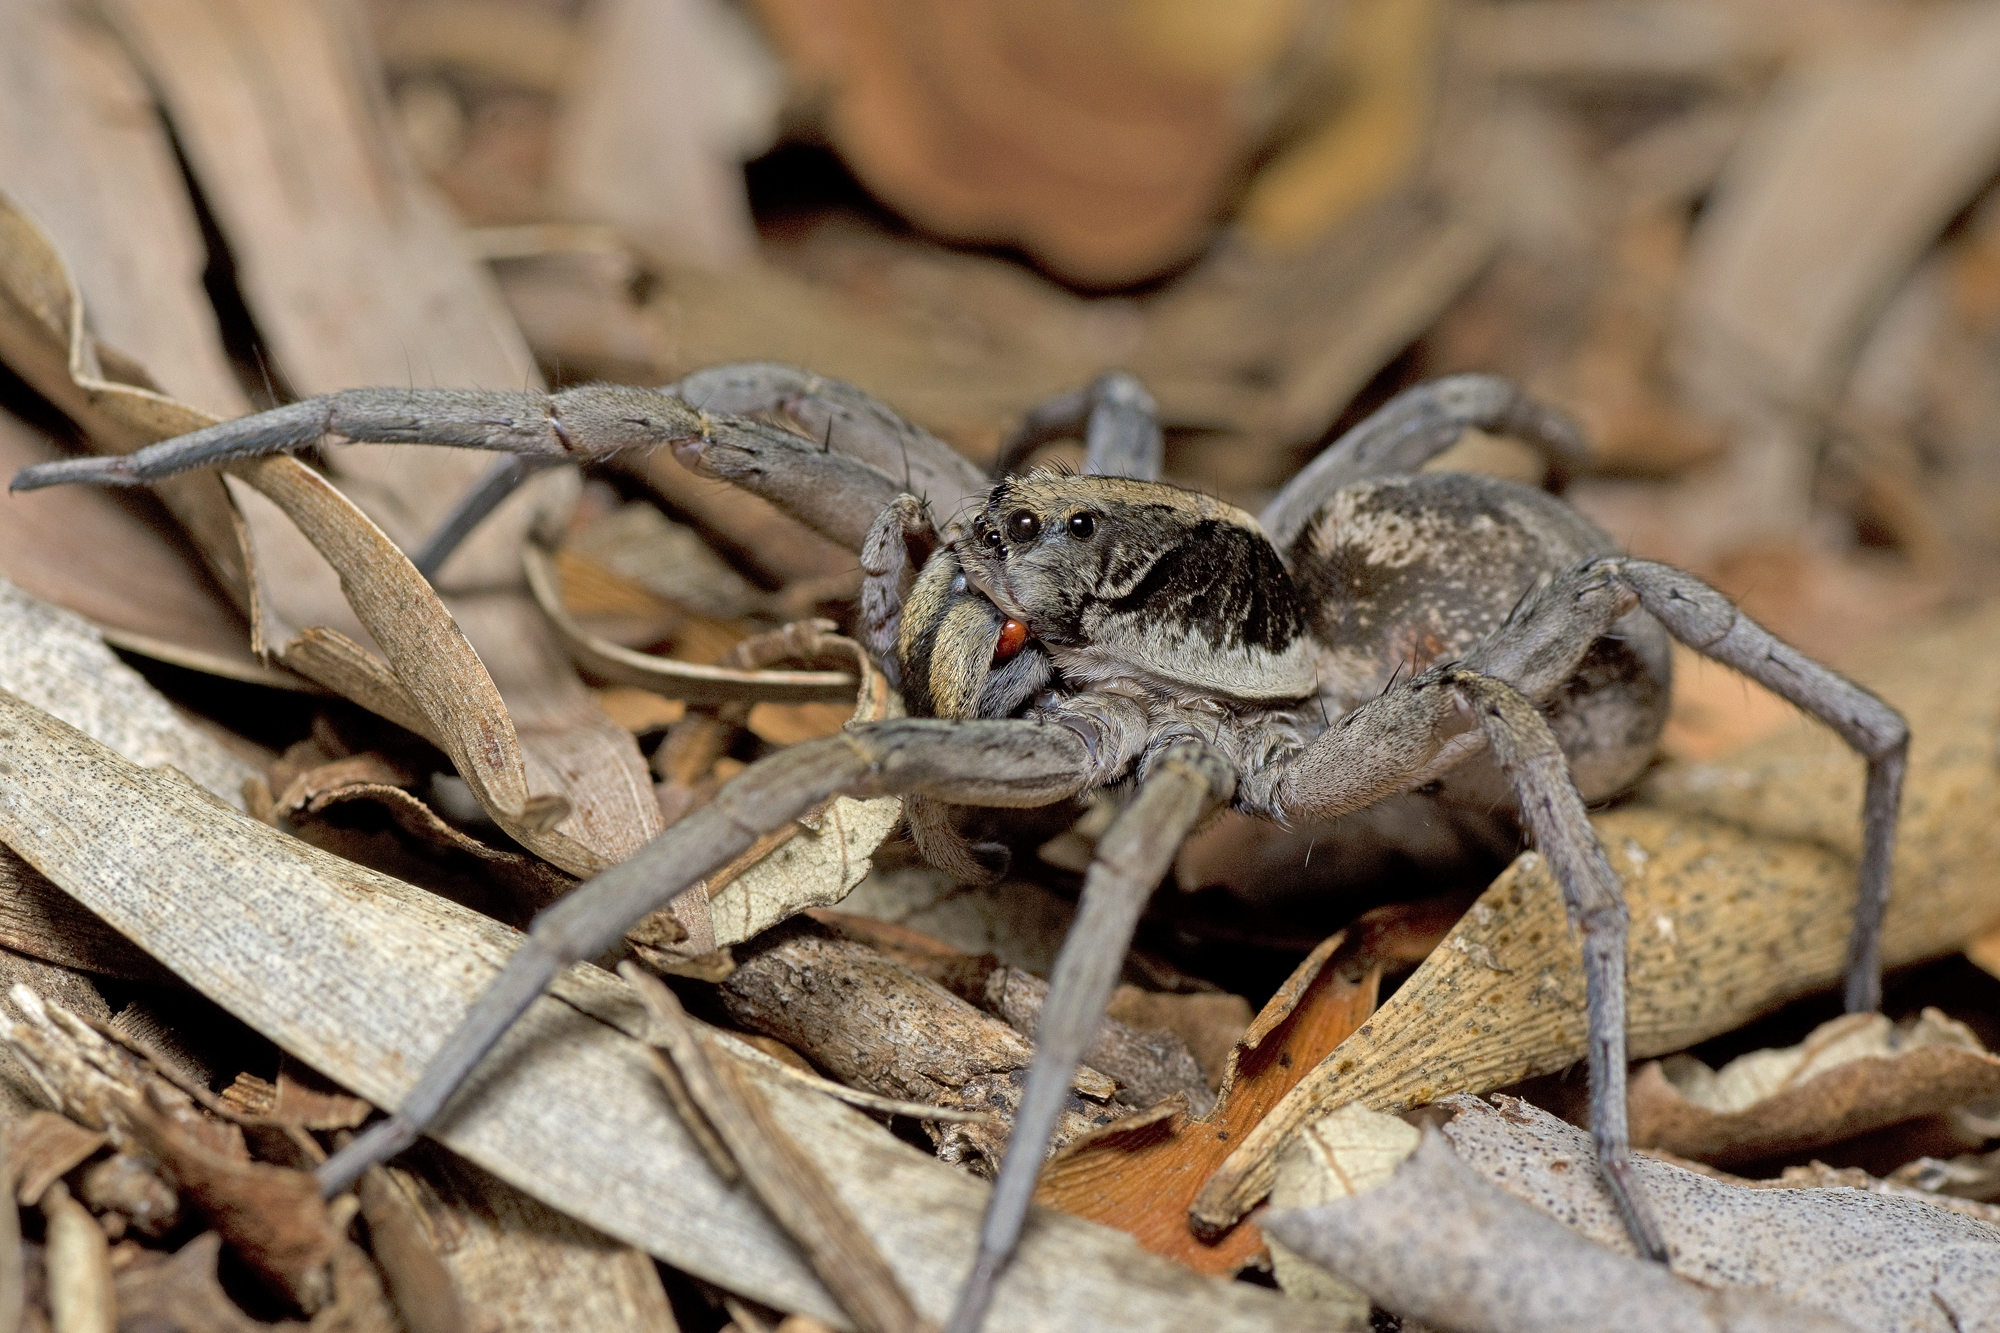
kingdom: Animalia
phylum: Arthropoda
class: Arachnida
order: Araneae
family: Lycosidae
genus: Venator
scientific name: Venator spenceri
